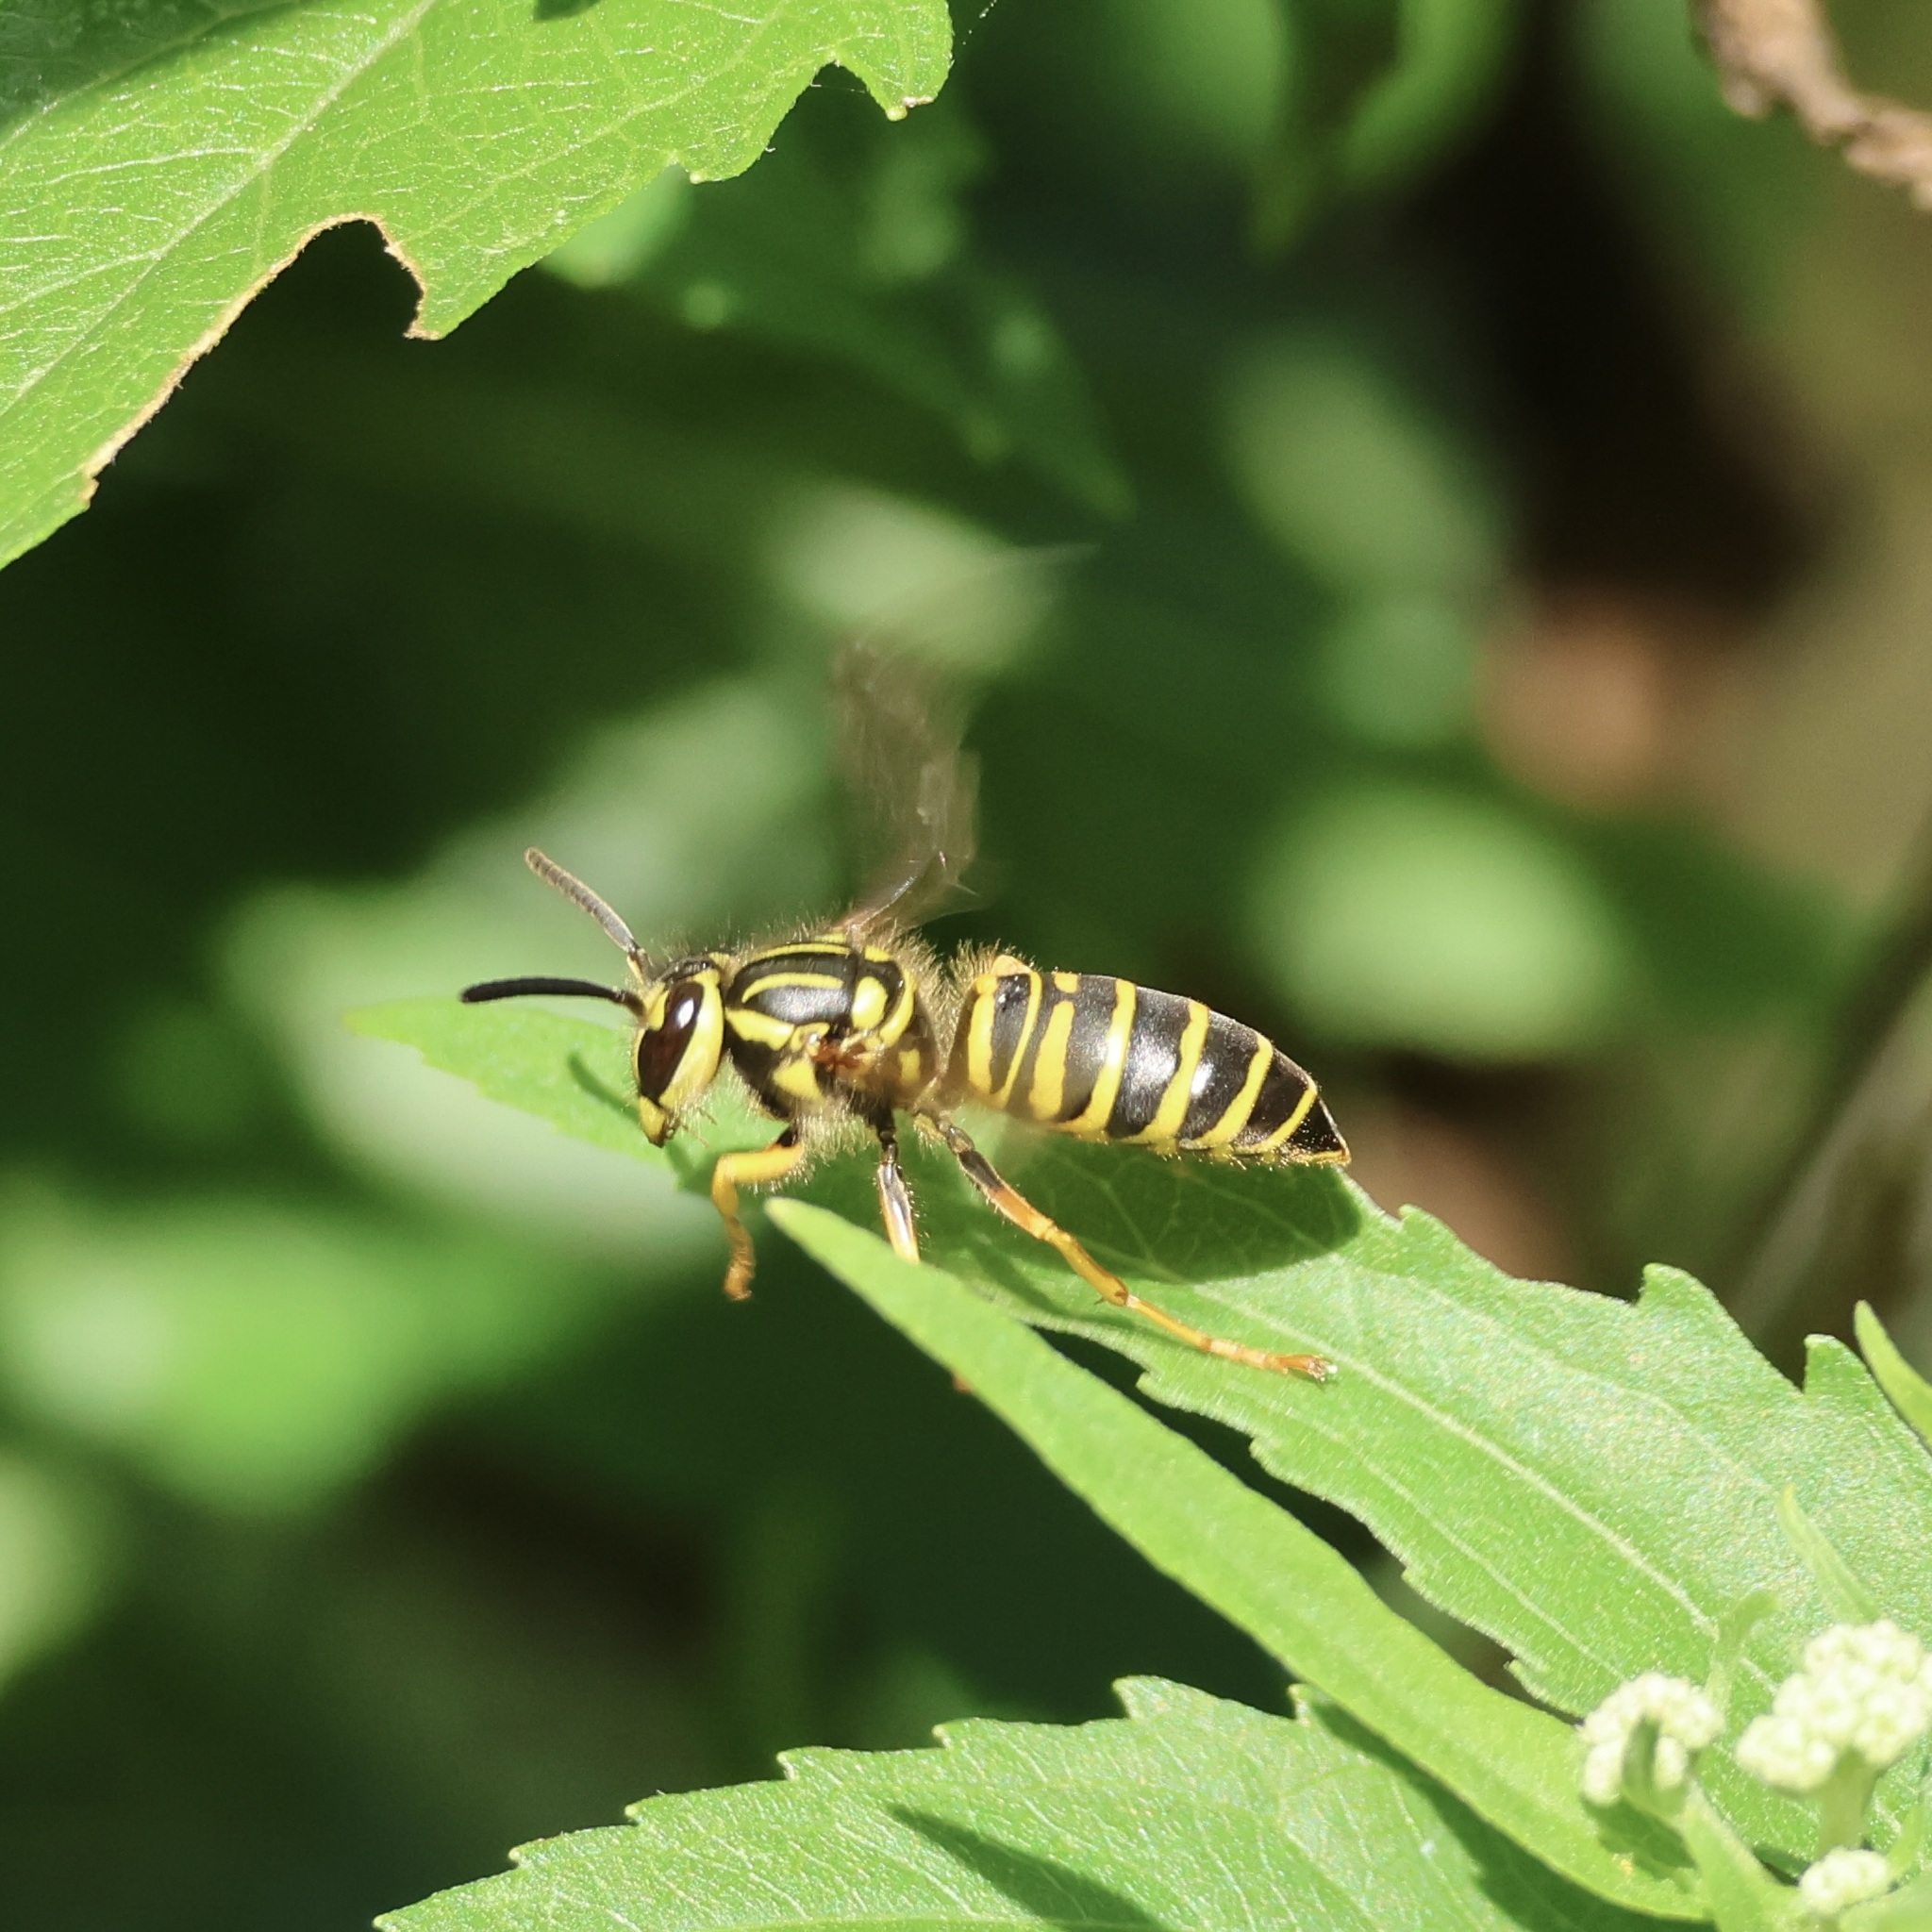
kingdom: Animalia
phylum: Arthropoda
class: Insecta
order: Hymenoptera
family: Vespidae
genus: Vespula
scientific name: Vespula squamosa
